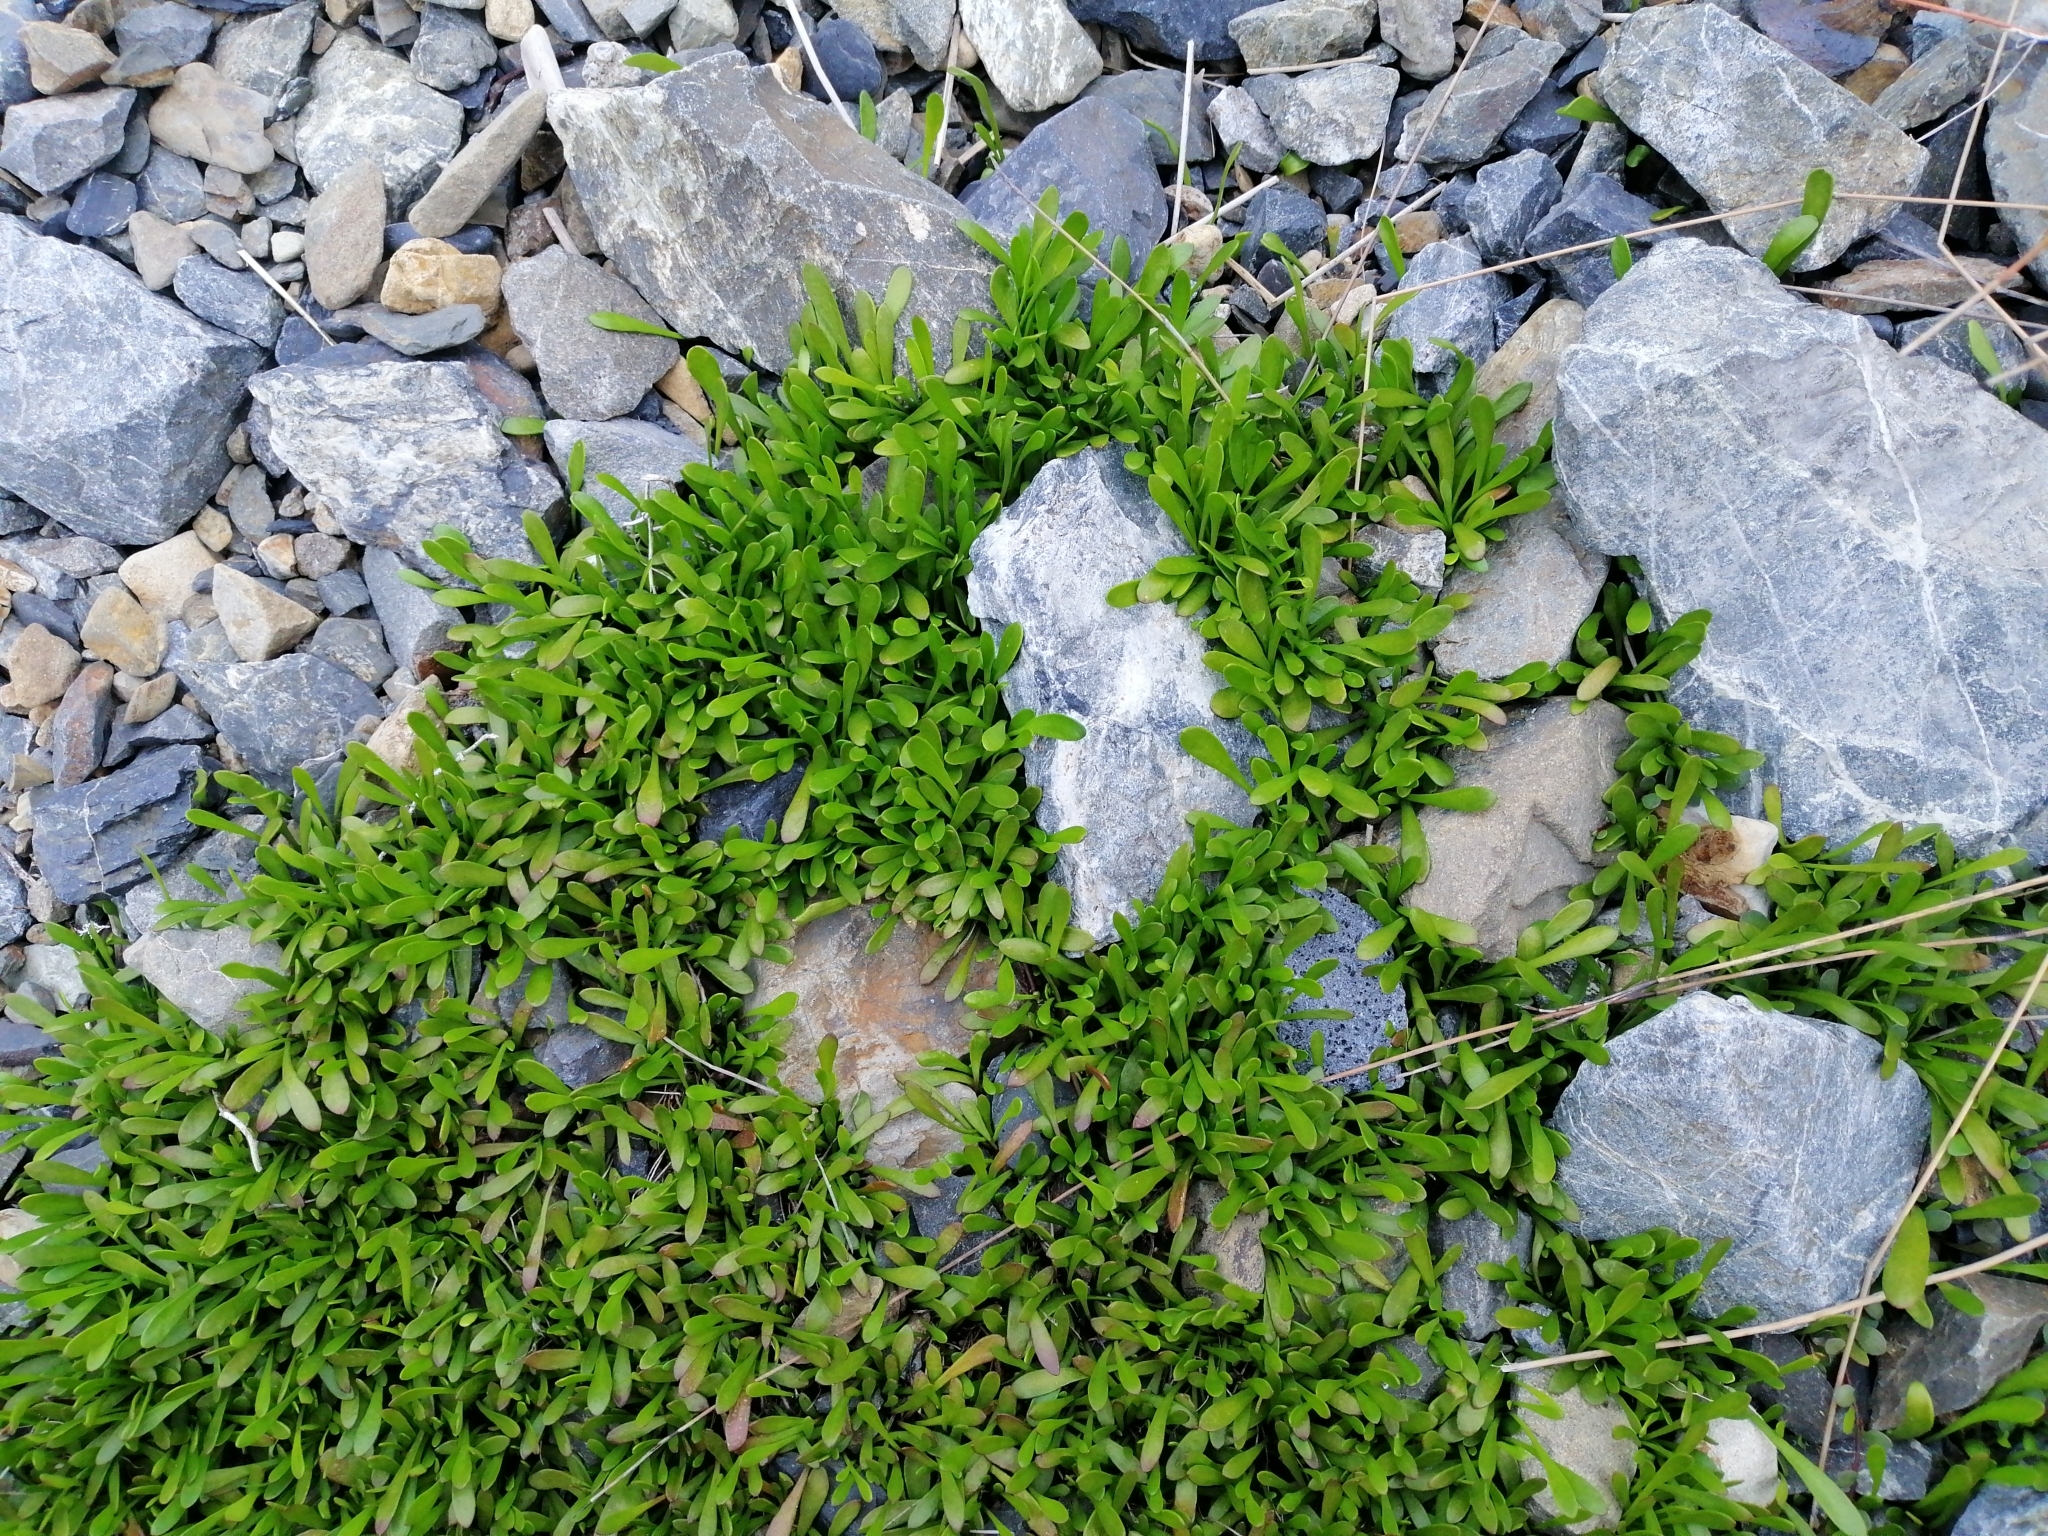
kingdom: Plantae
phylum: Tracheophyta
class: Magnoliopsida
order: Asterales
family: Goodeniaceae
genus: Goodenia
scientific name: Goodenia radicans
